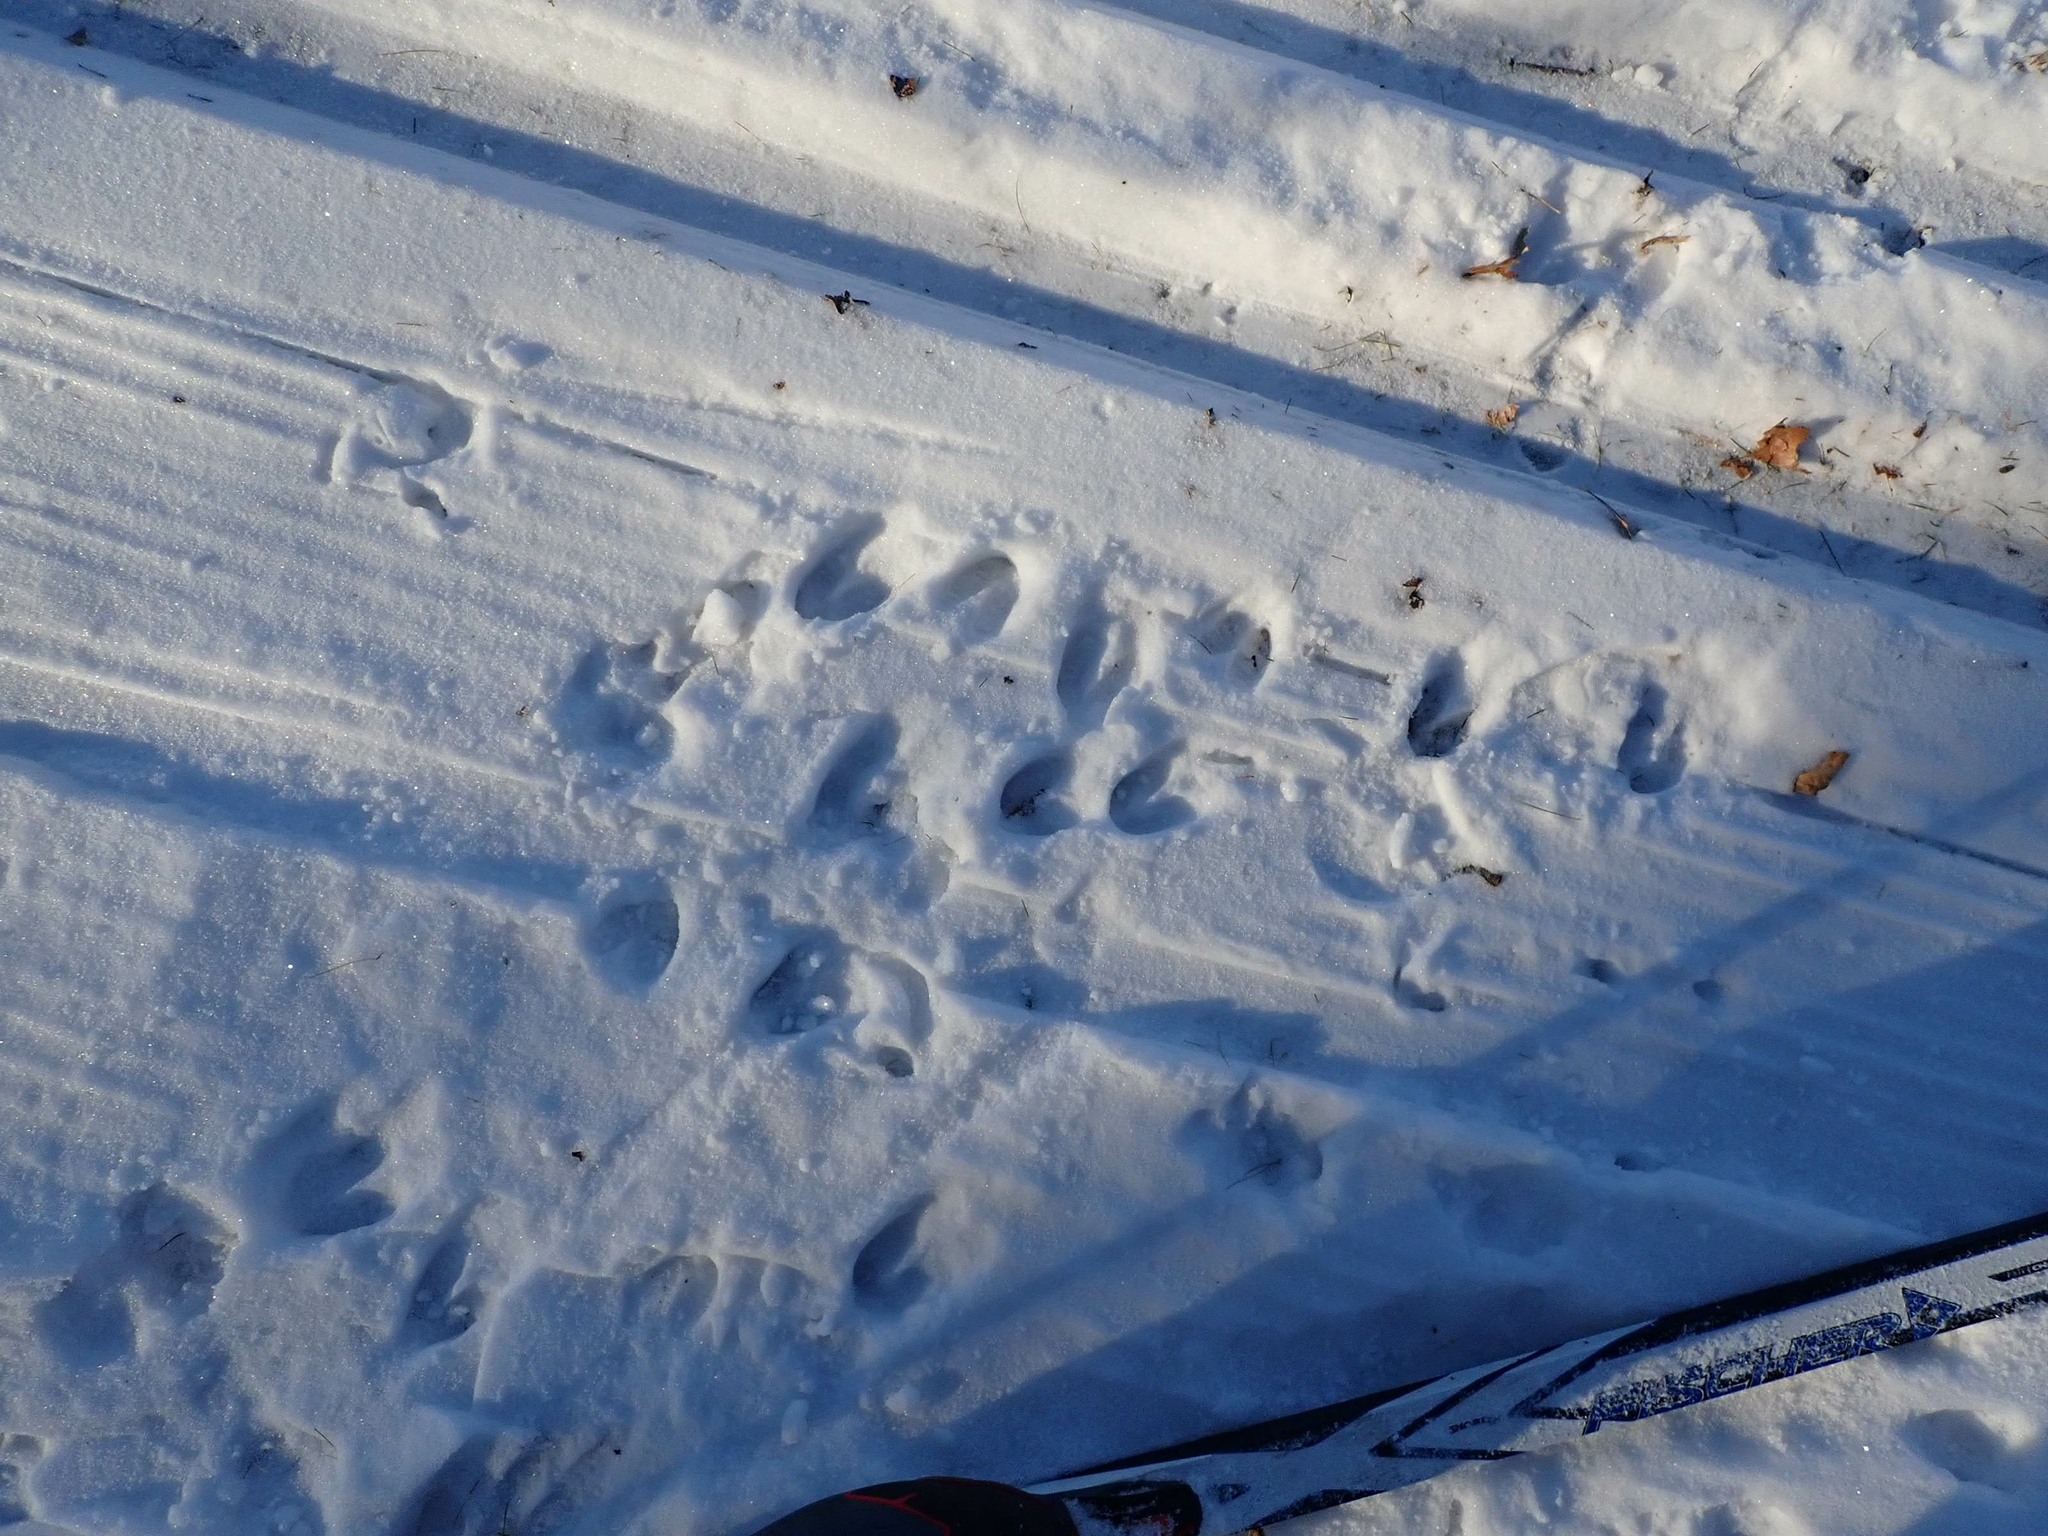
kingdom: Animalia
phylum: Chordata
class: Mammalia
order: Artiodactyla
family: Cervidae
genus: Odocoileus
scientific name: Odocoileus virginianus
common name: White-tailed deer
